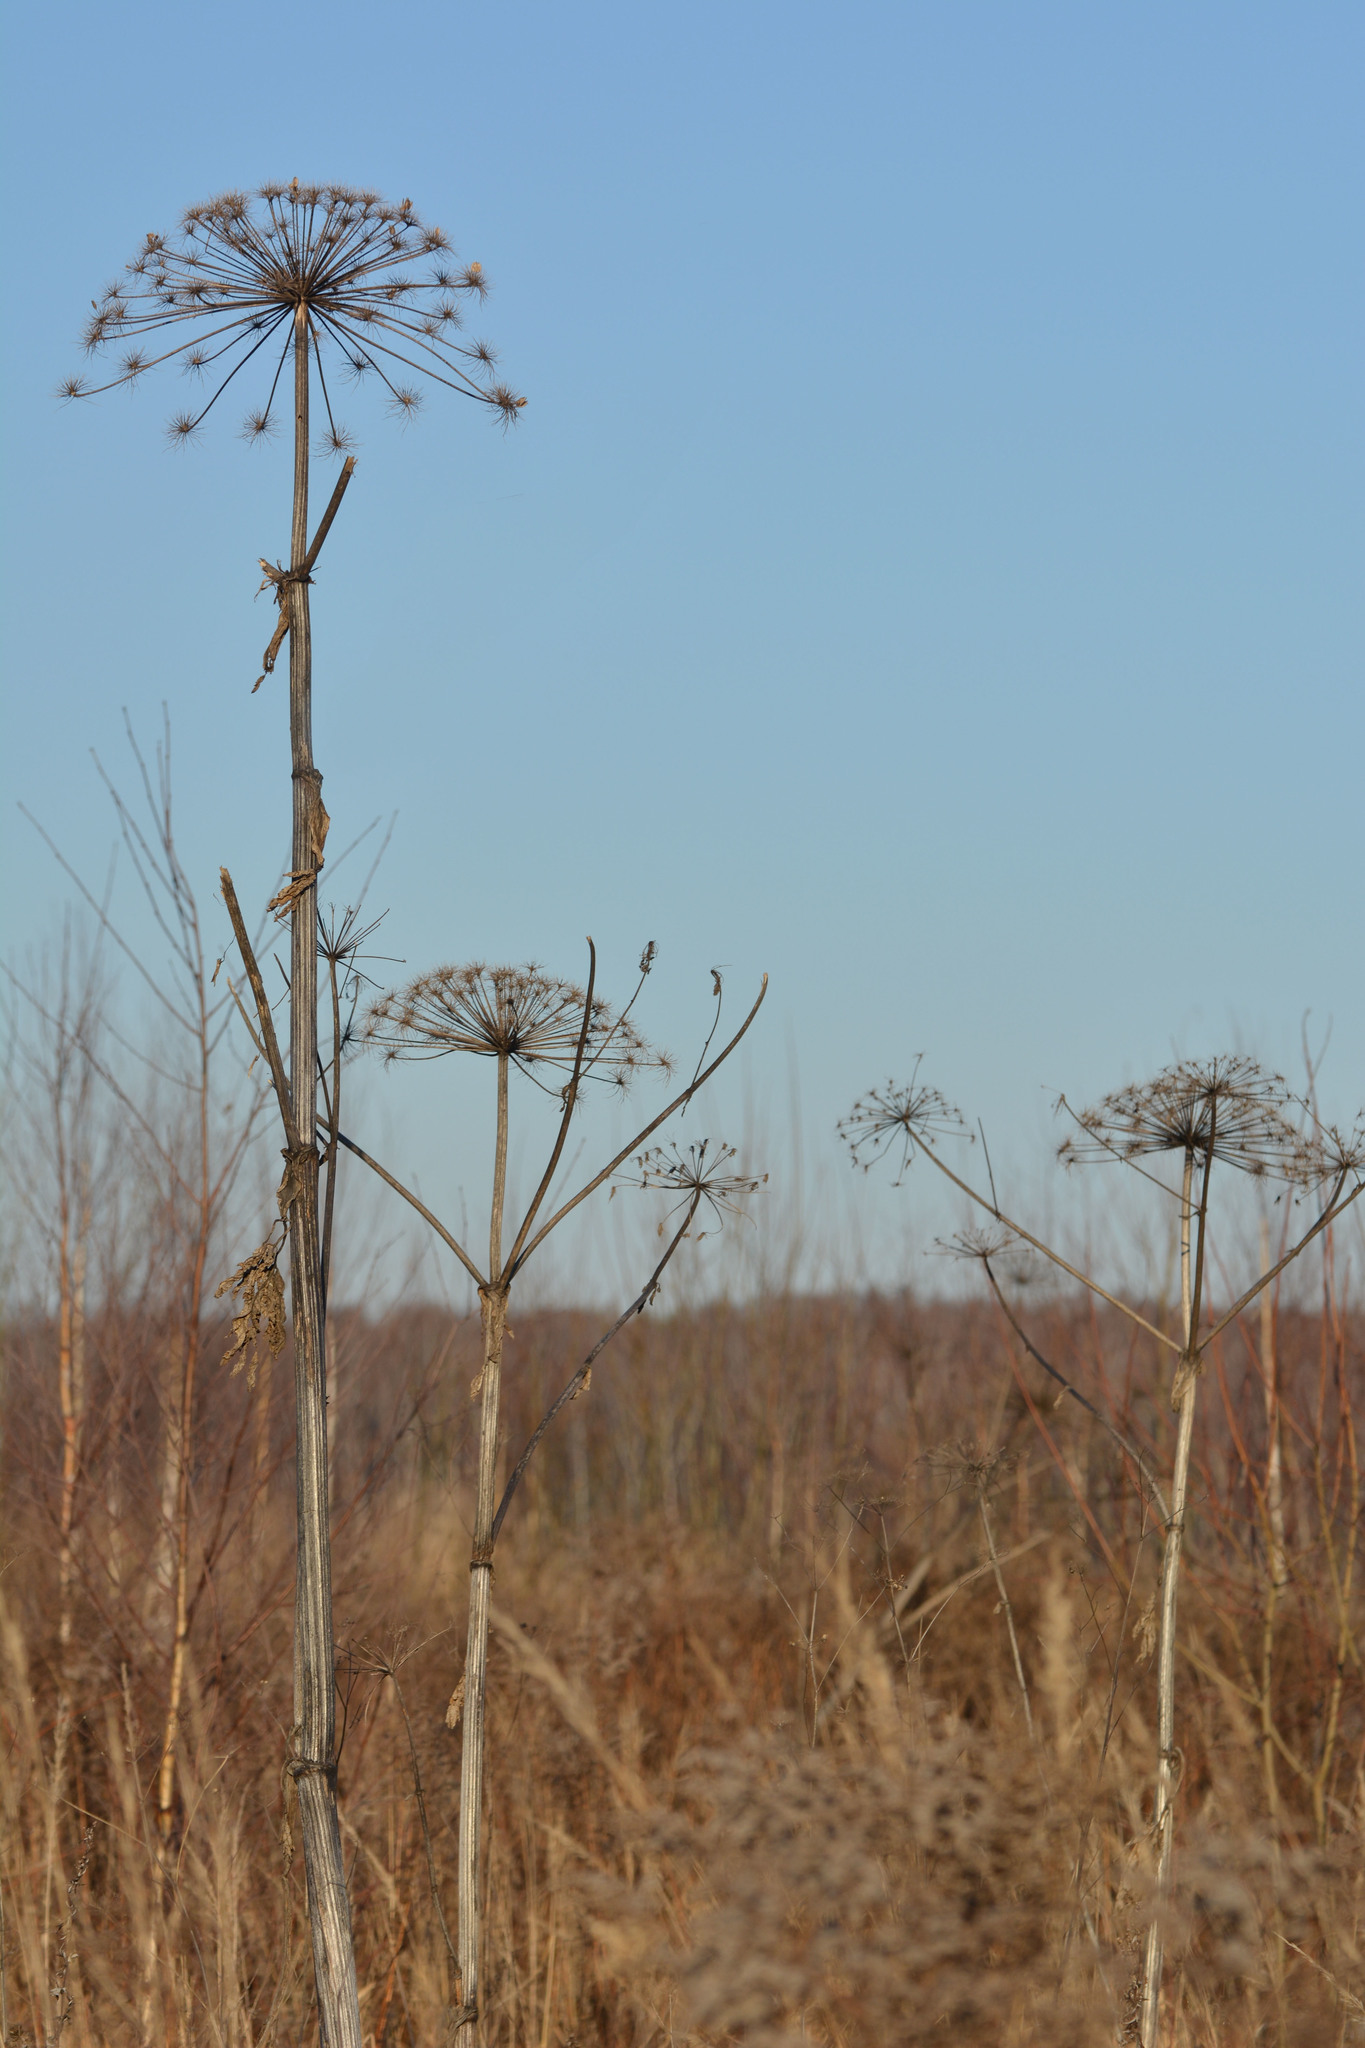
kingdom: Plantae
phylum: Tracheophyta
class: Magnoliopsida
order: Apiales
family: Apiaceae
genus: Heracleum
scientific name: Heracleum sosnowskyi
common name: Sosnowsky's hogweed
